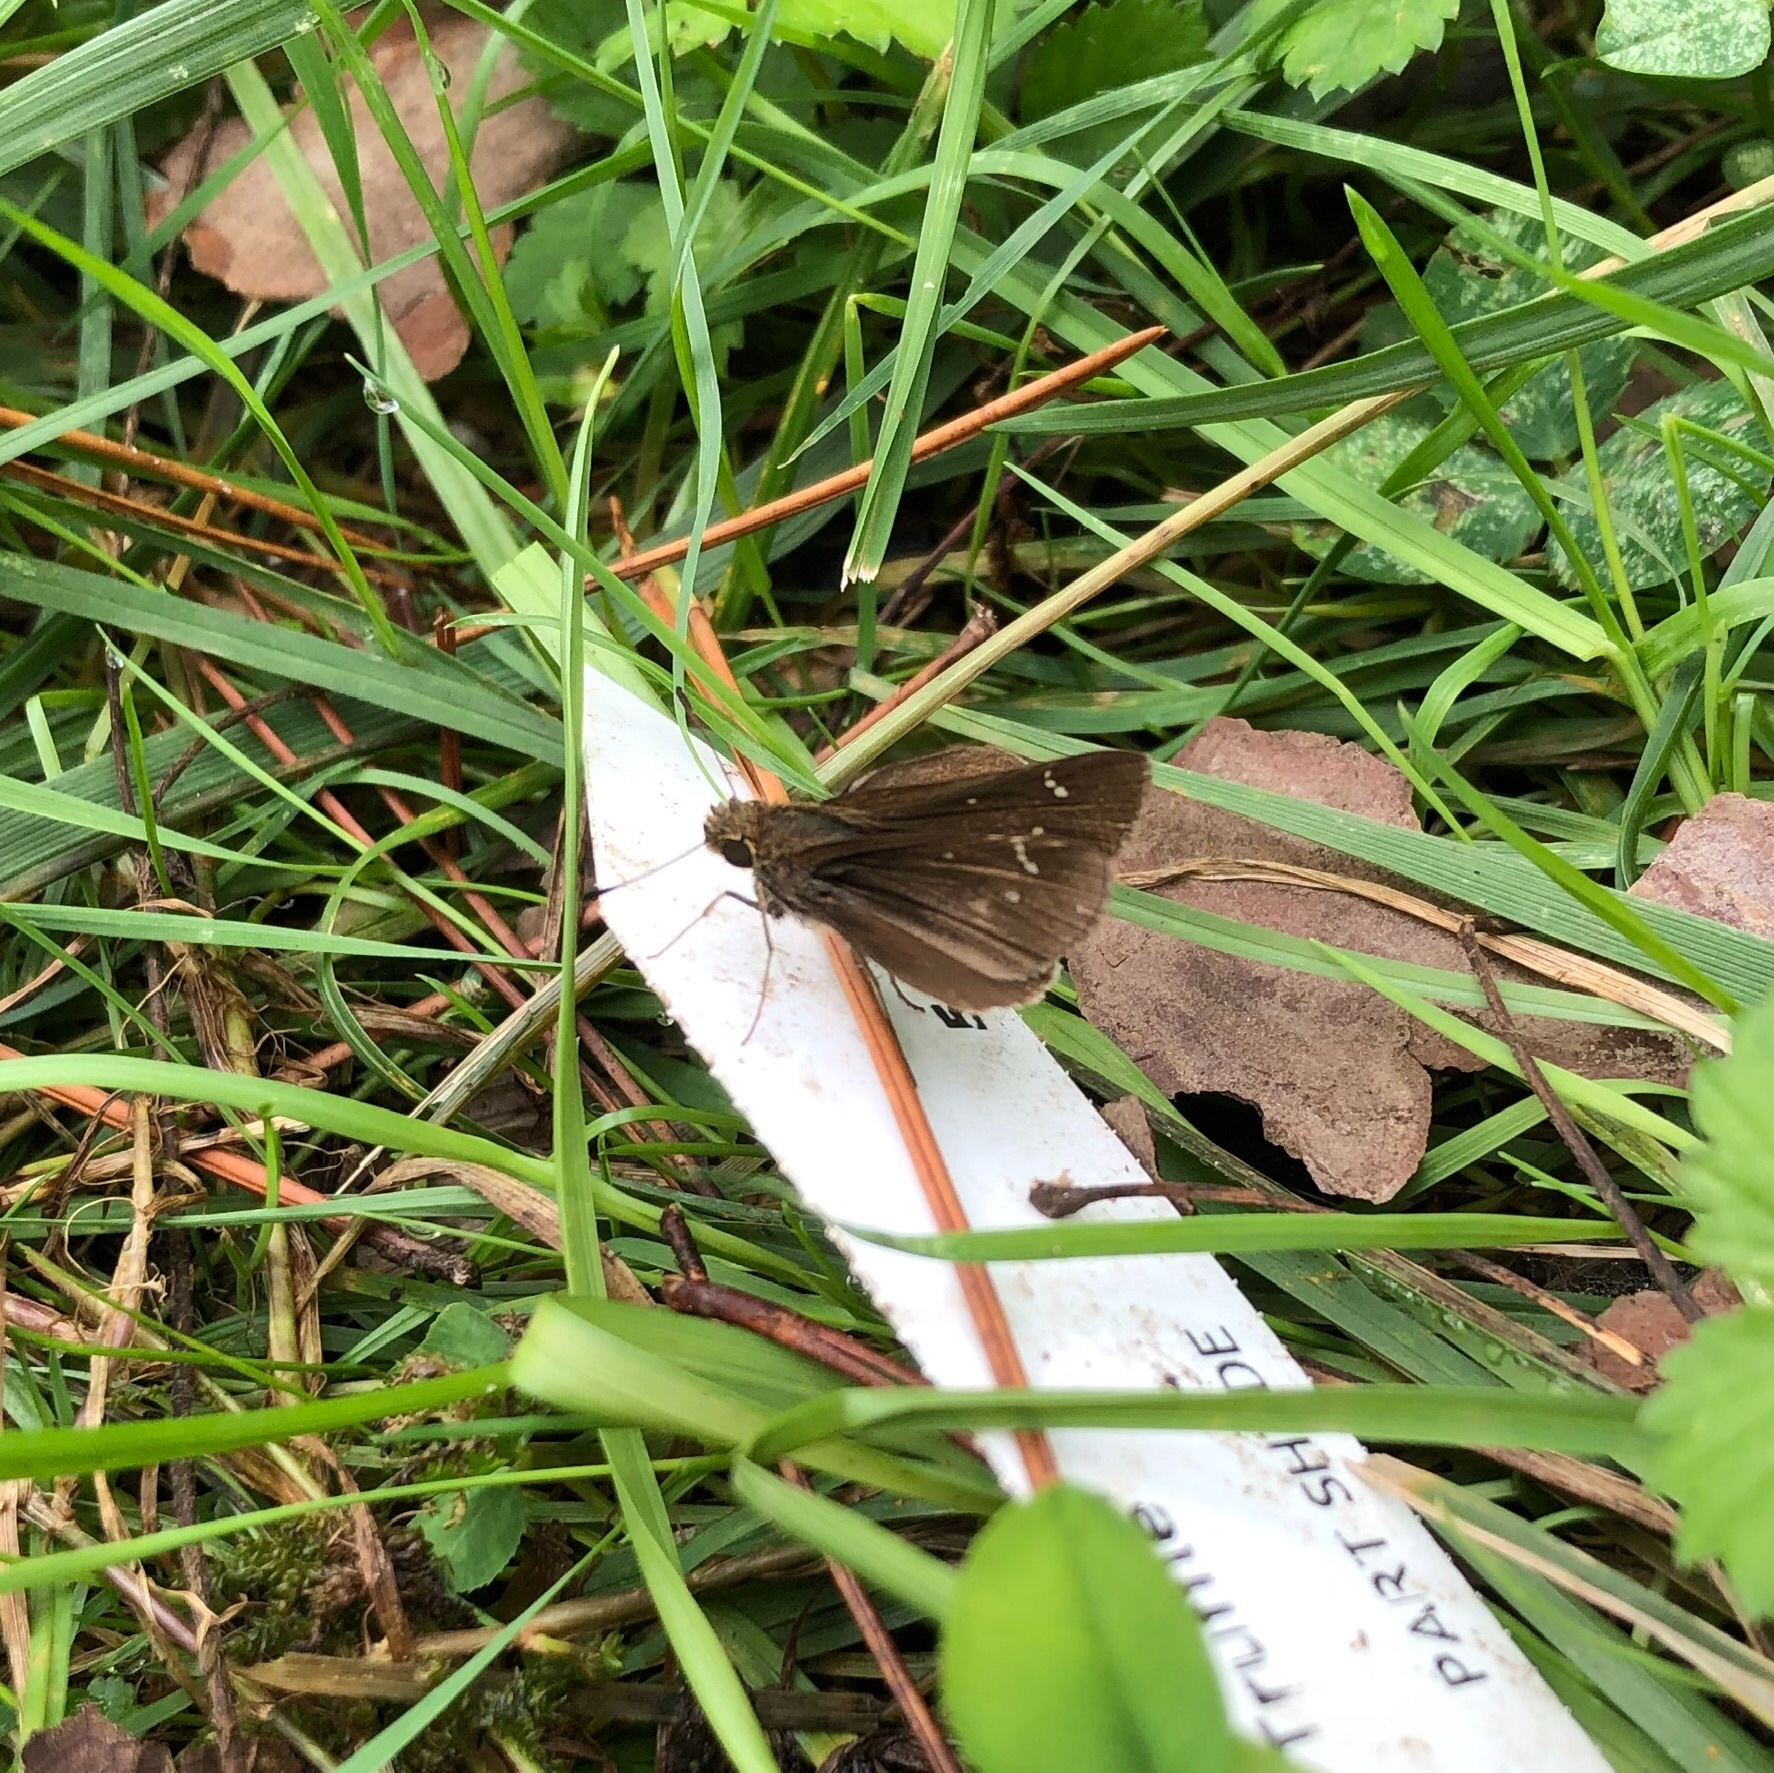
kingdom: Animalia
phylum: Arthropoda
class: Insecta
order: Lepidoptera
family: Hesperiidae
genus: Lerema
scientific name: Lerema accius
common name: Clouded skipper
